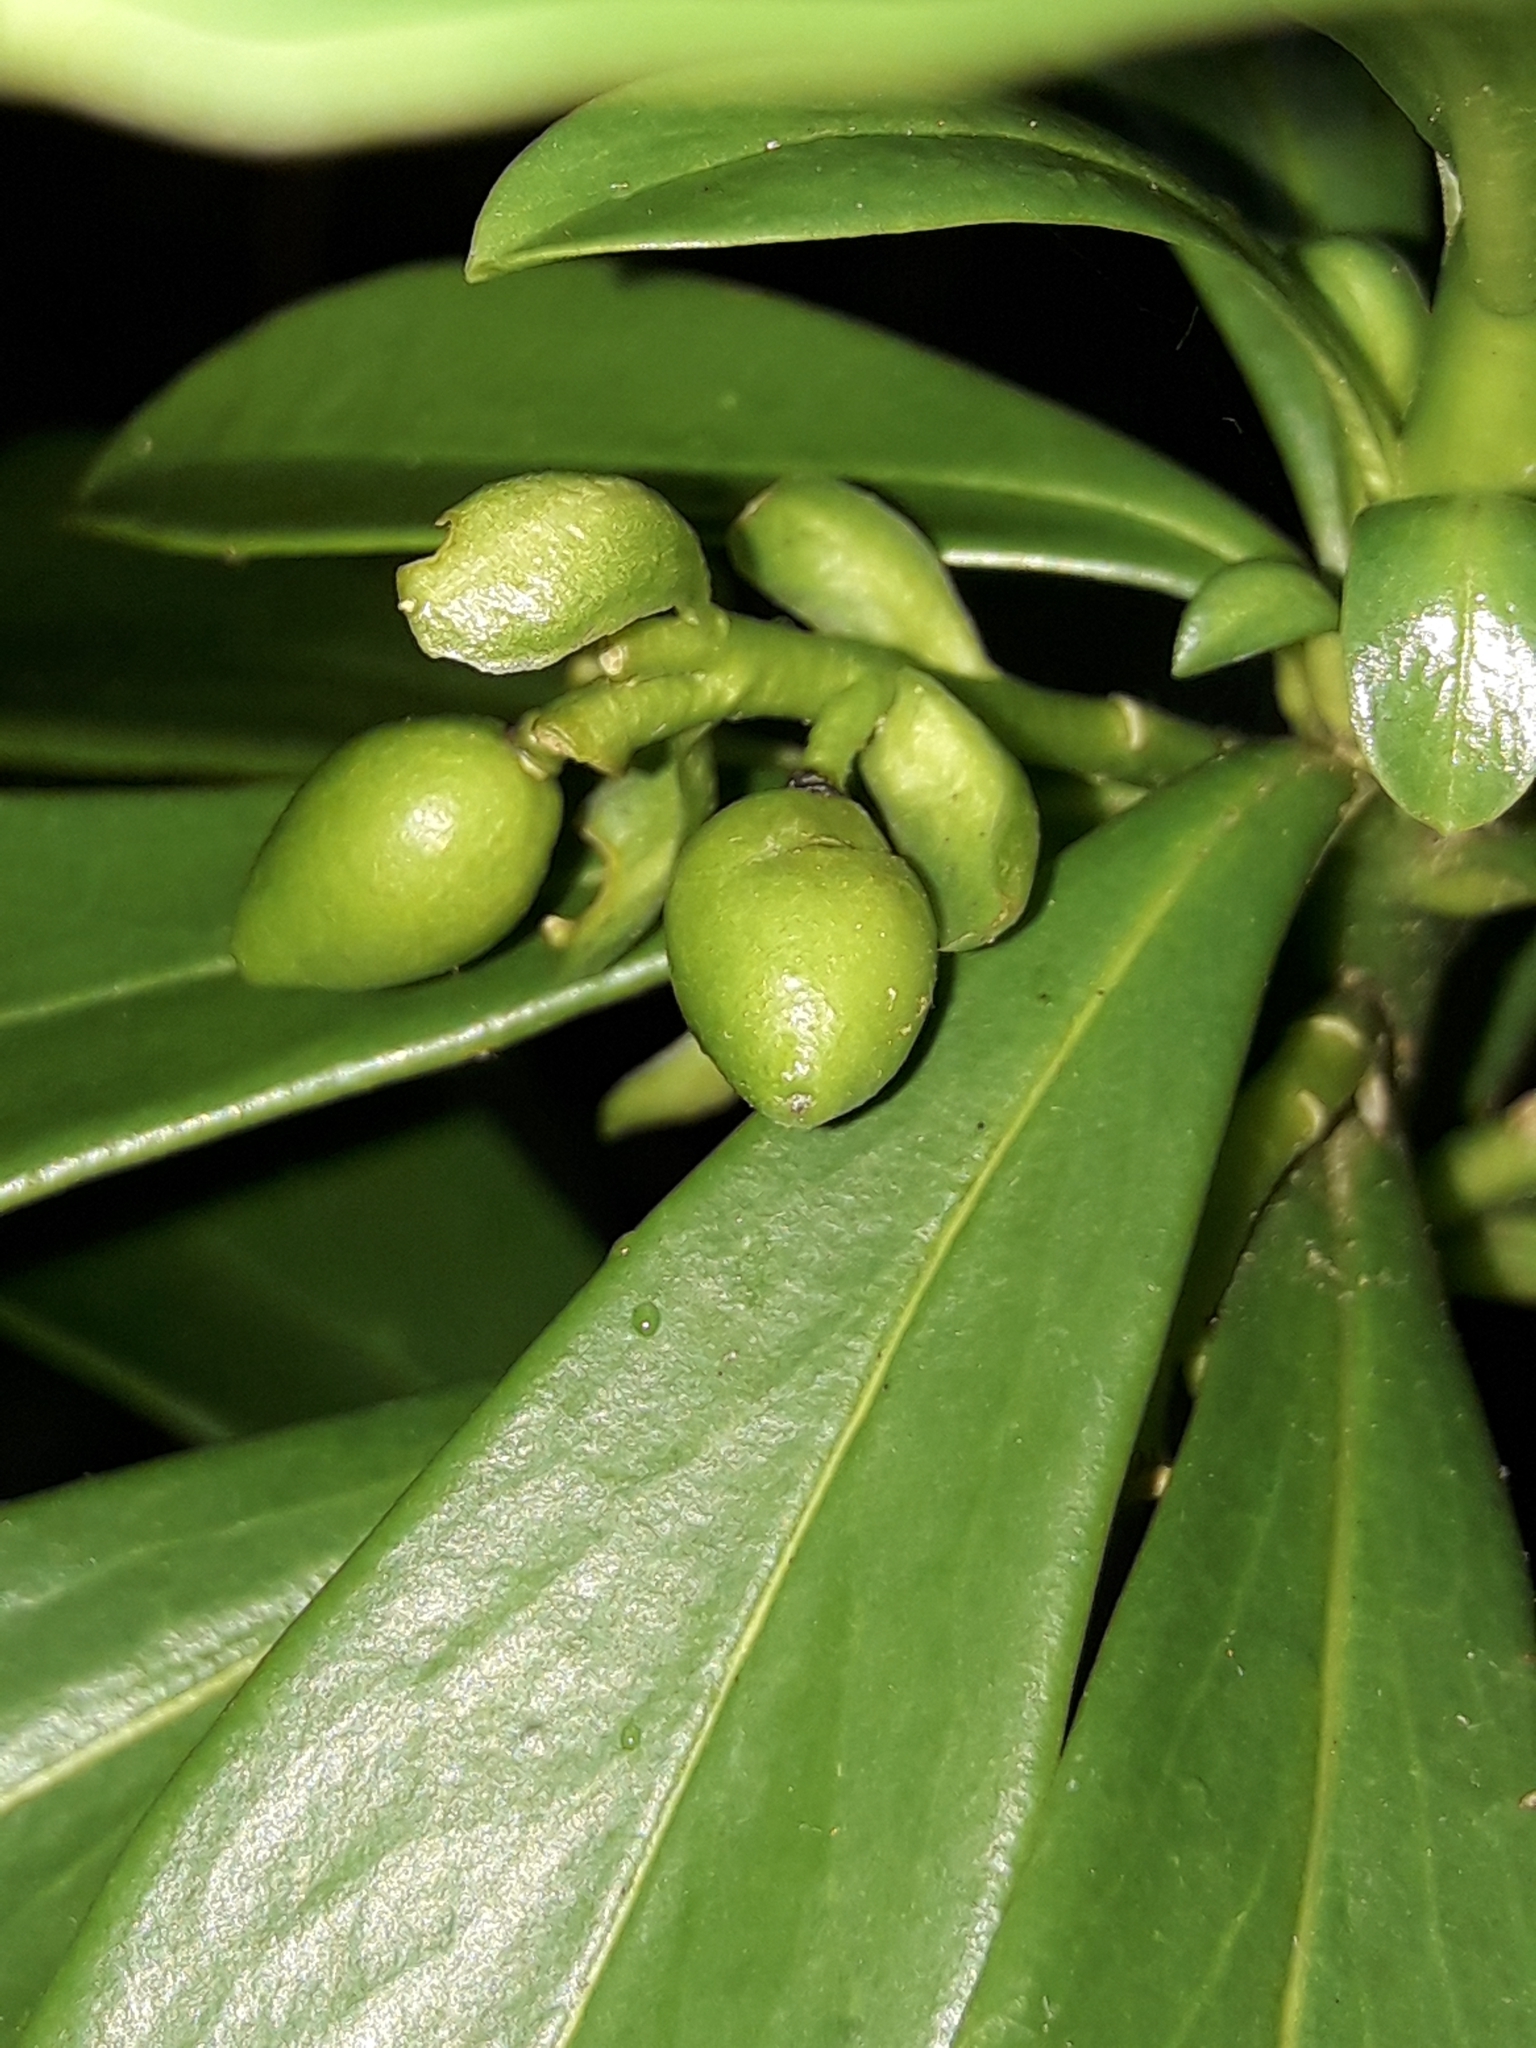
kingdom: Plantae
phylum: Tracheophyta
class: Magnoliopsida
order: Malvales
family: Thymelaeaceae
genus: Daphne
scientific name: Daphne laureola
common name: Spurge-laurel
